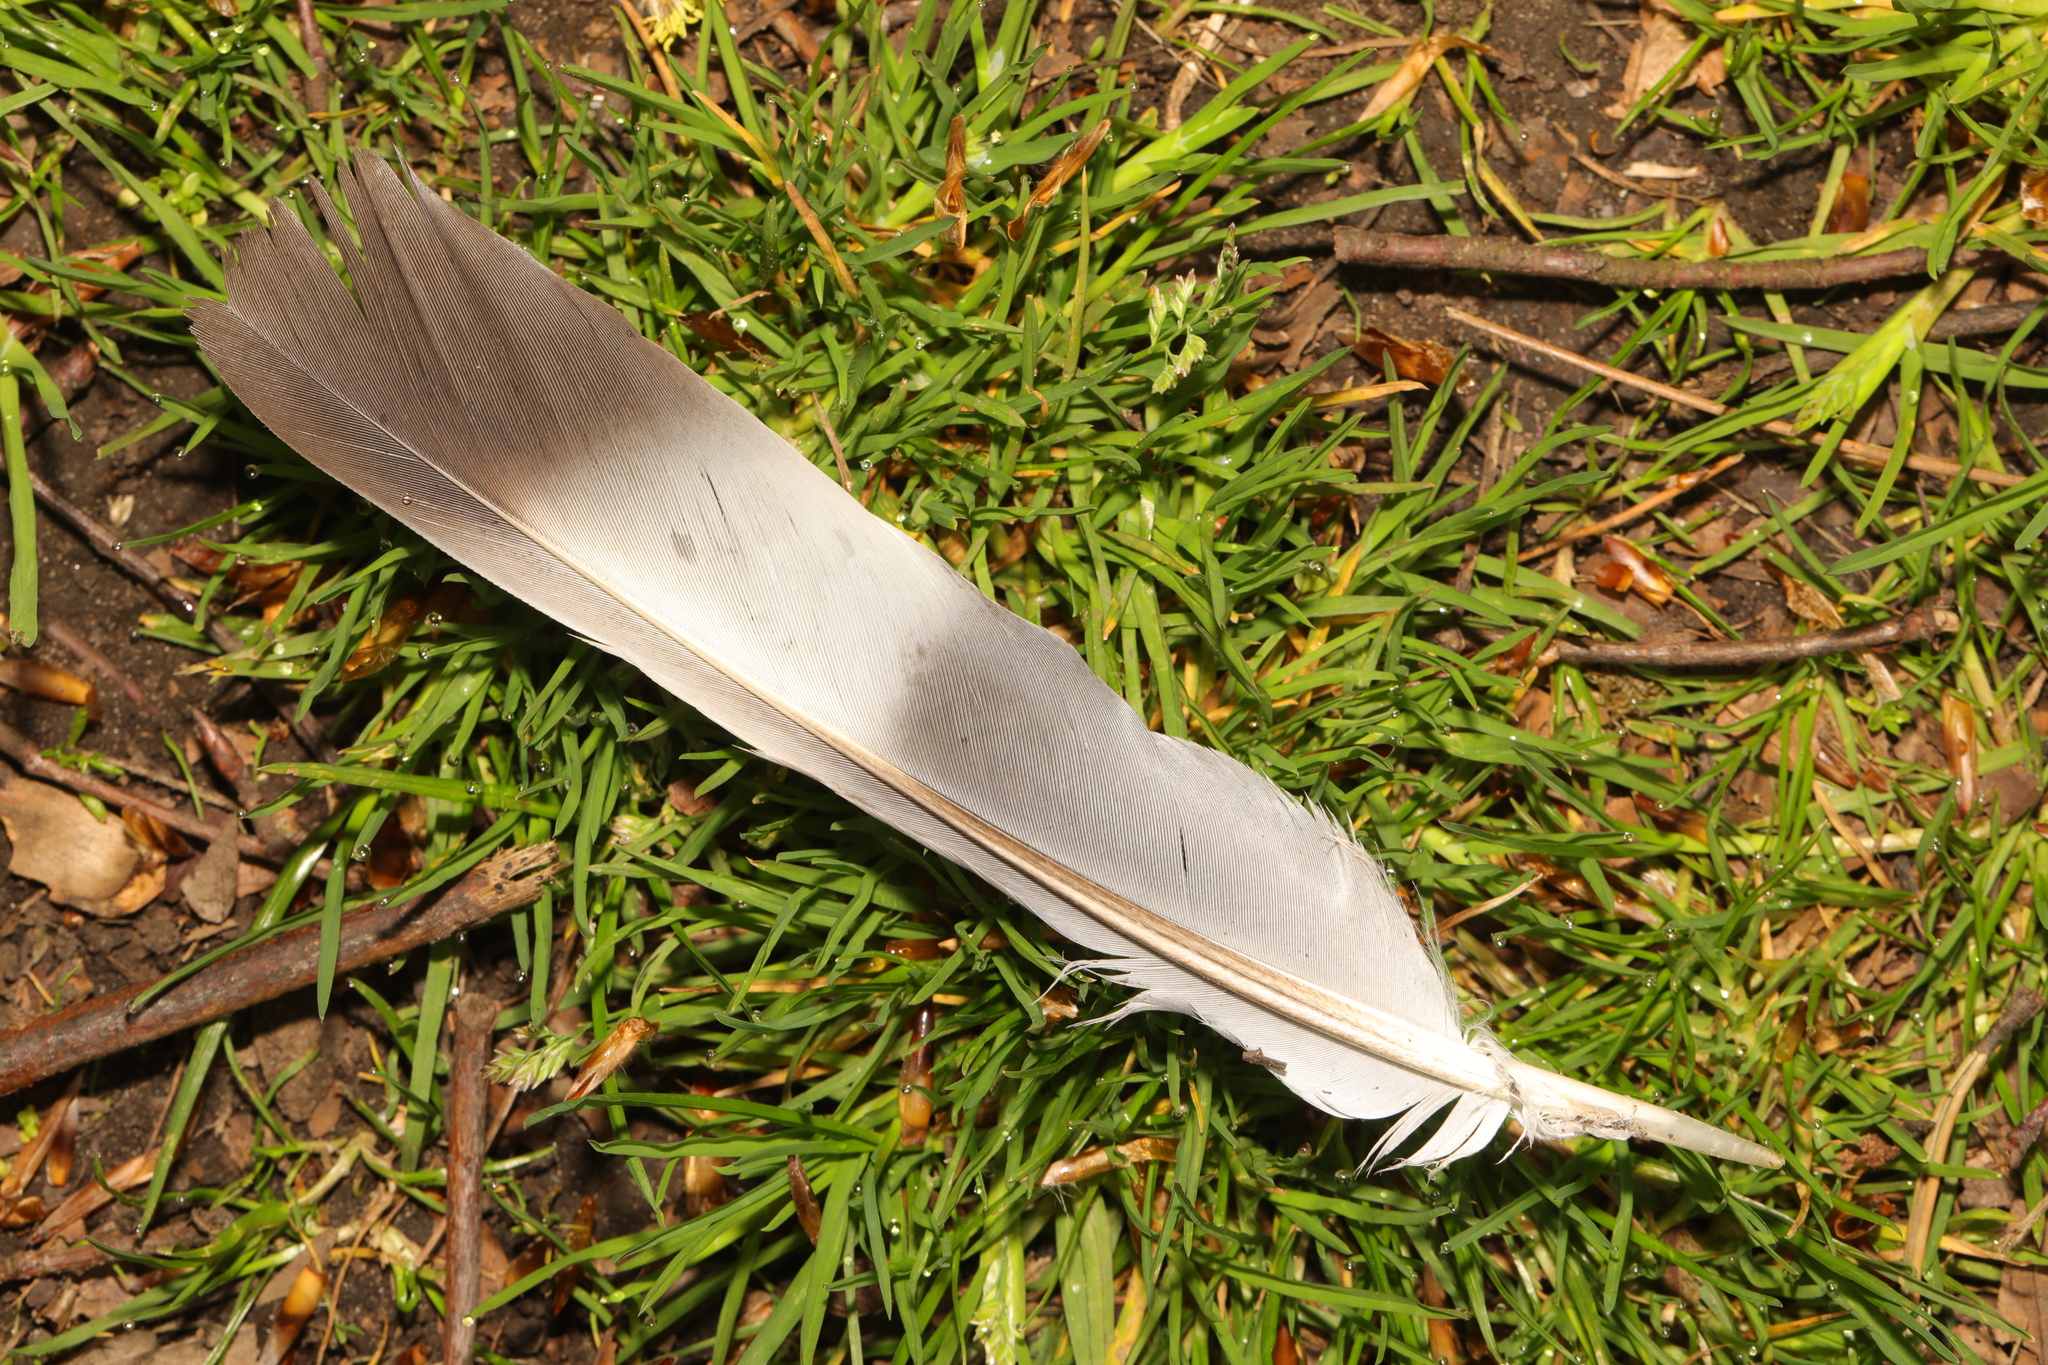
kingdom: Animalia
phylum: Chordata
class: Aves
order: Columbiformes
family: Columbidae
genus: Columba
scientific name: Columba palumbus
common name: Common wood pigeon
